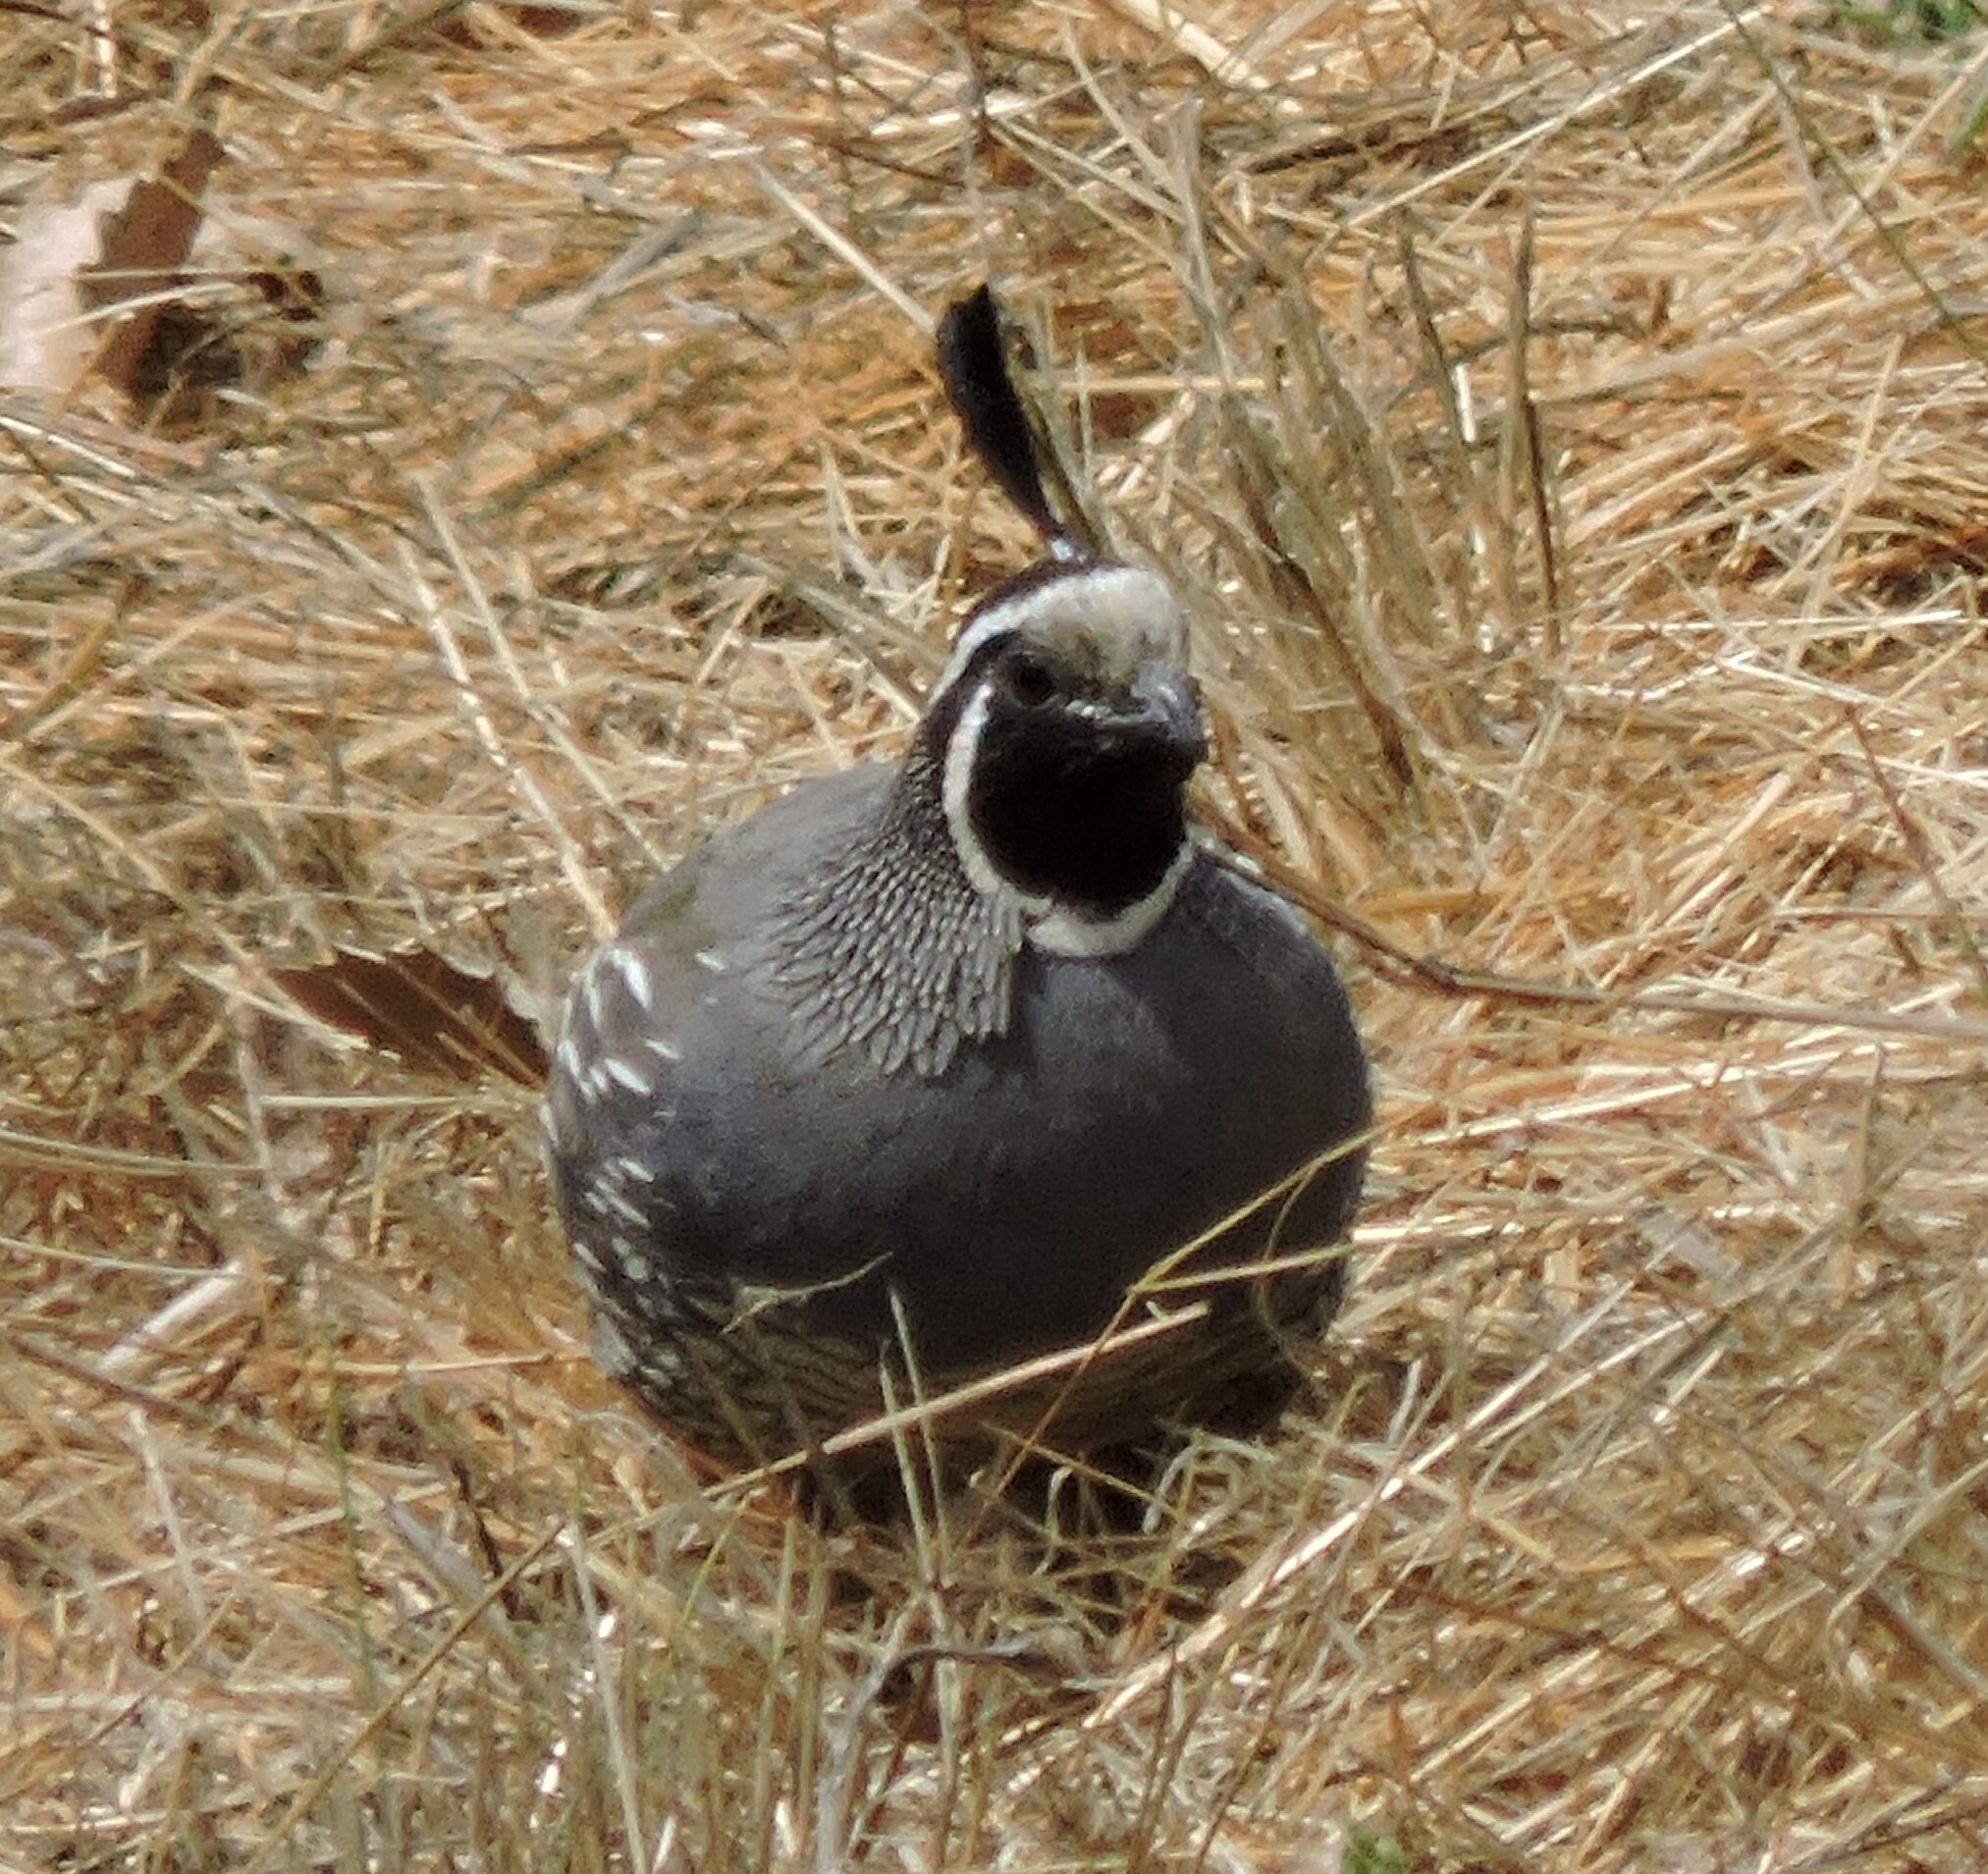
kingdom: Animalia
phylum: Chordata
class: Aves
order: Galliformes
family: Odontophoridae
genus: Callipepla
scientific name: Callipepla californica
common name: California quail
